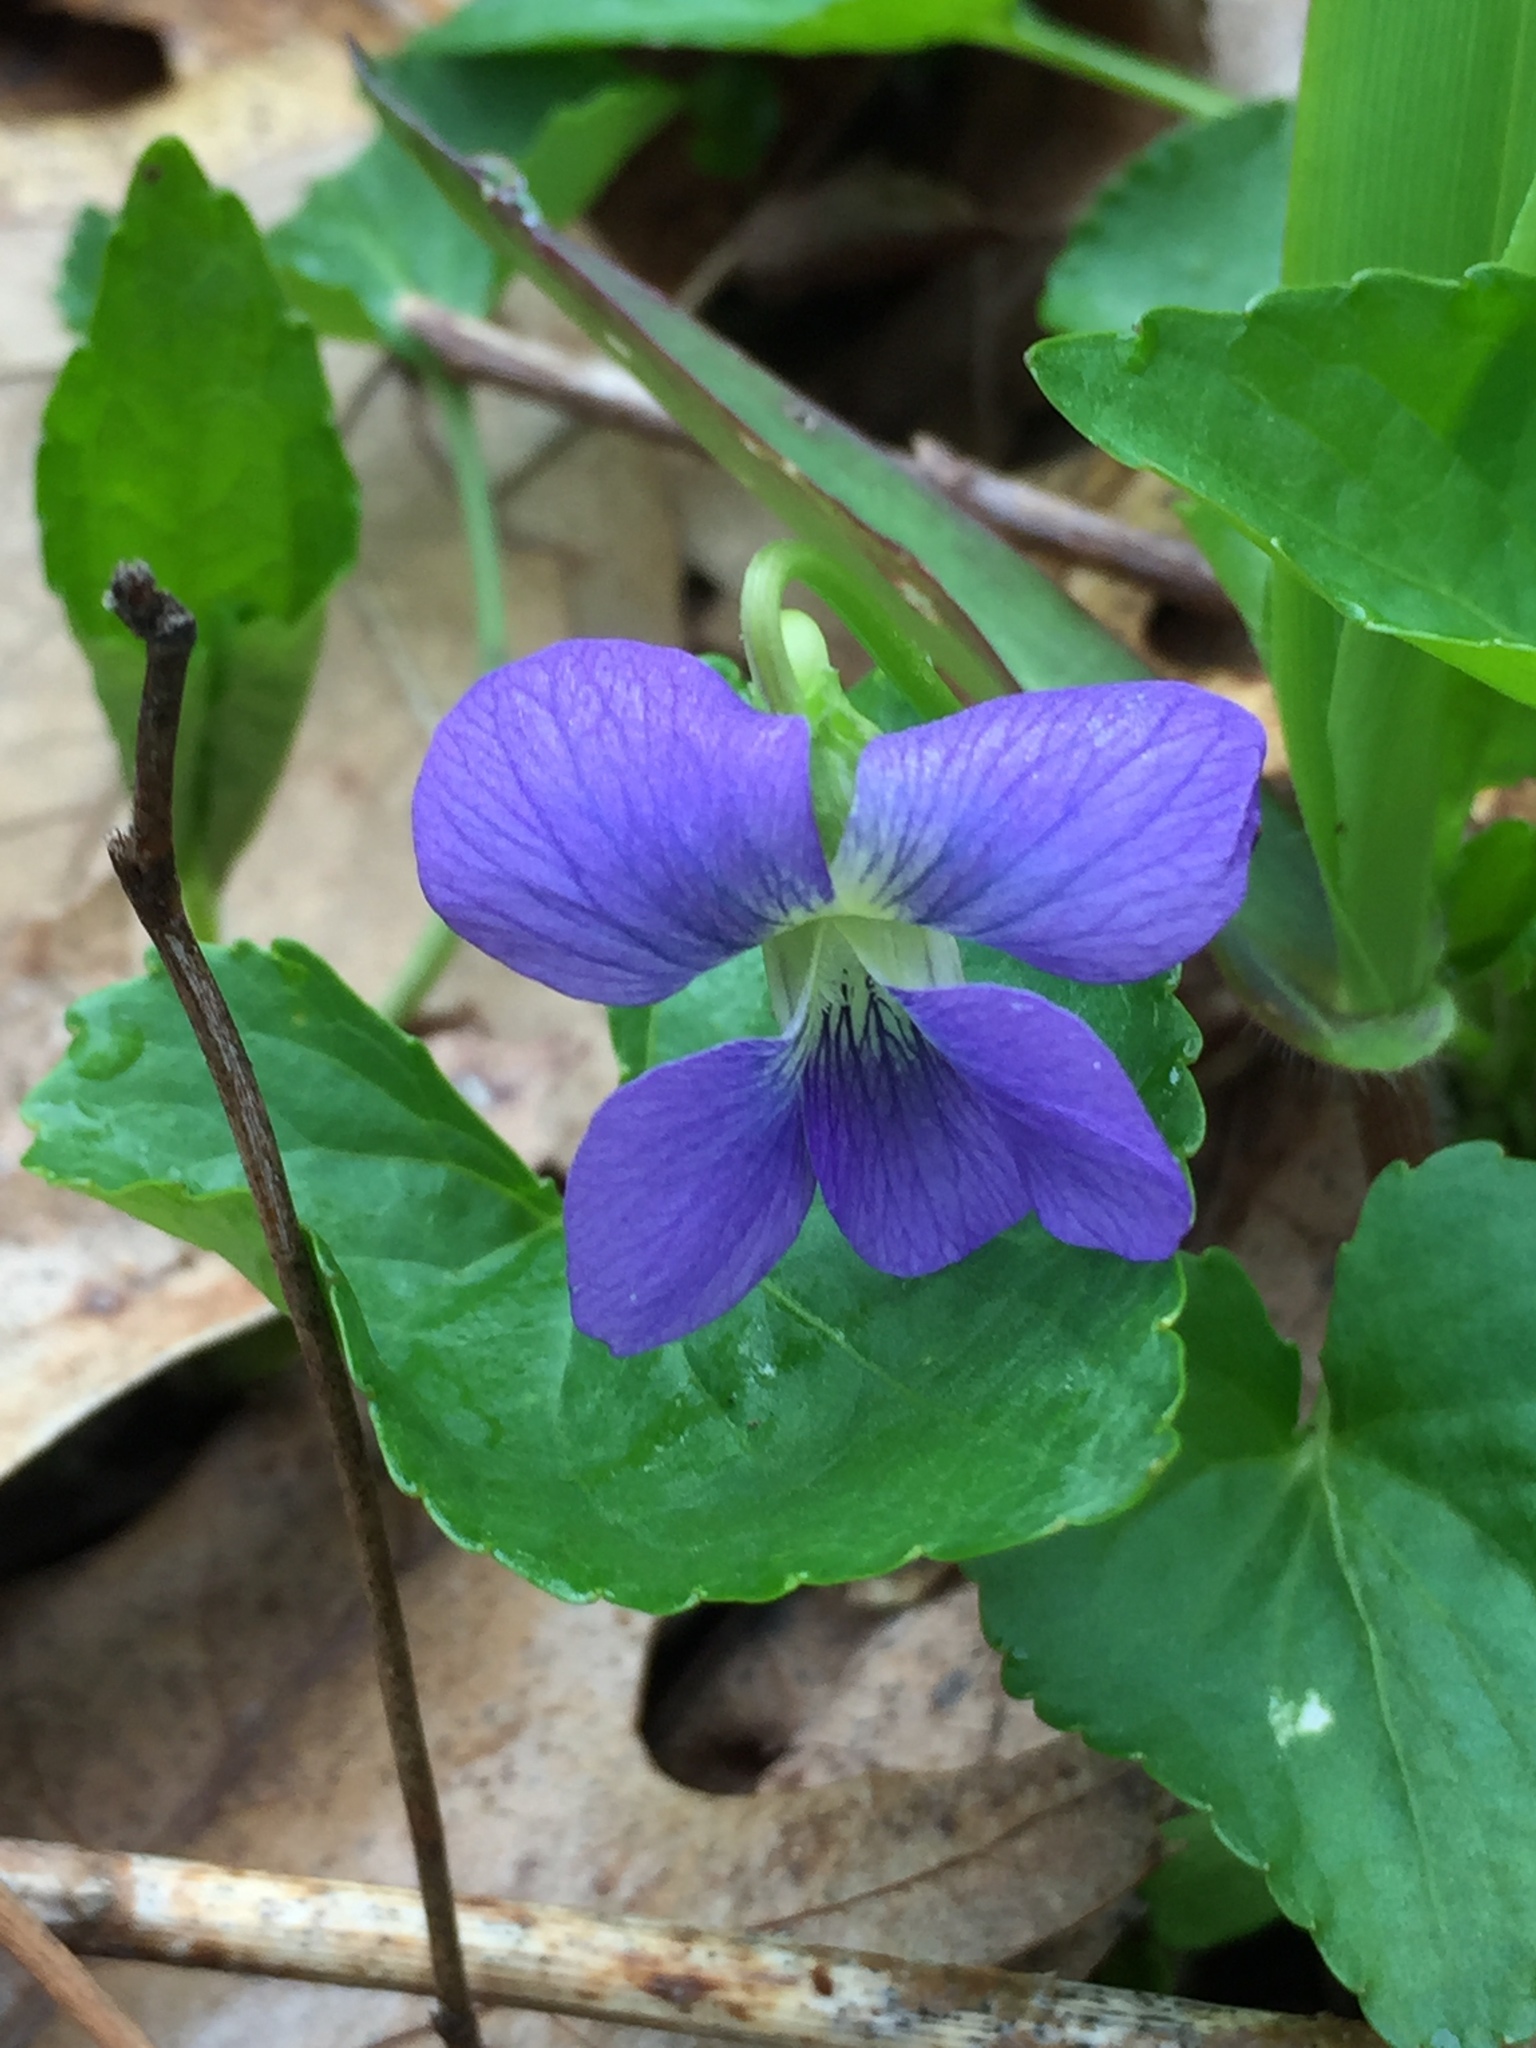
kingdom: Plantae
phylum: Tracheophyta
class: Magnoliopsida
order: Malpighiales
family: Violaceae
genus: Viola
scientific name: Viola sororia
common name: Dooryard violet
